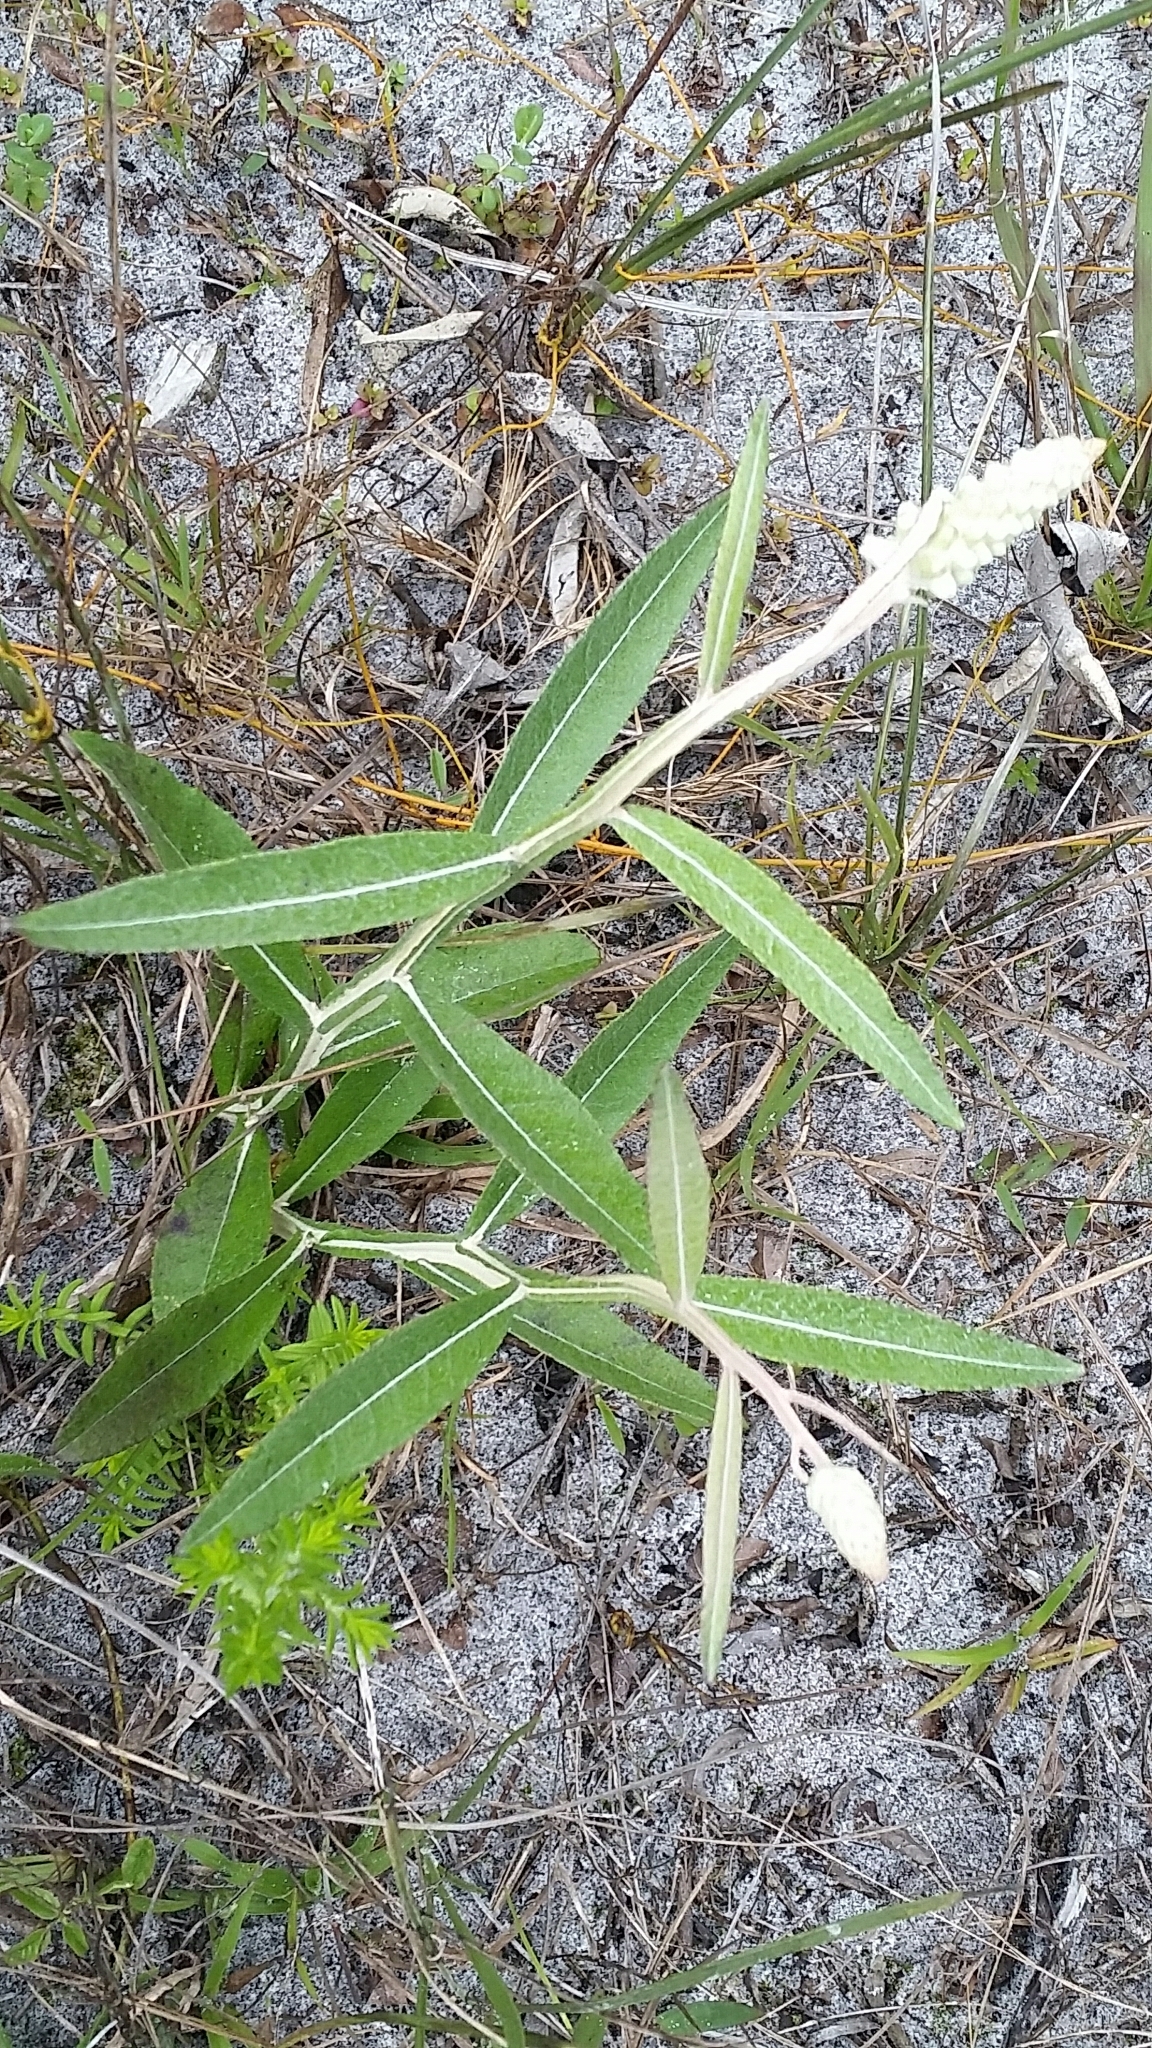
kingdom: Plantae
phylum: Tracheophyta
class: Magnoliopsida
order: Asterales
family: Asteraceae
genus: Pterocaulon
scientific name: Pterocaulon pycnostachyum
